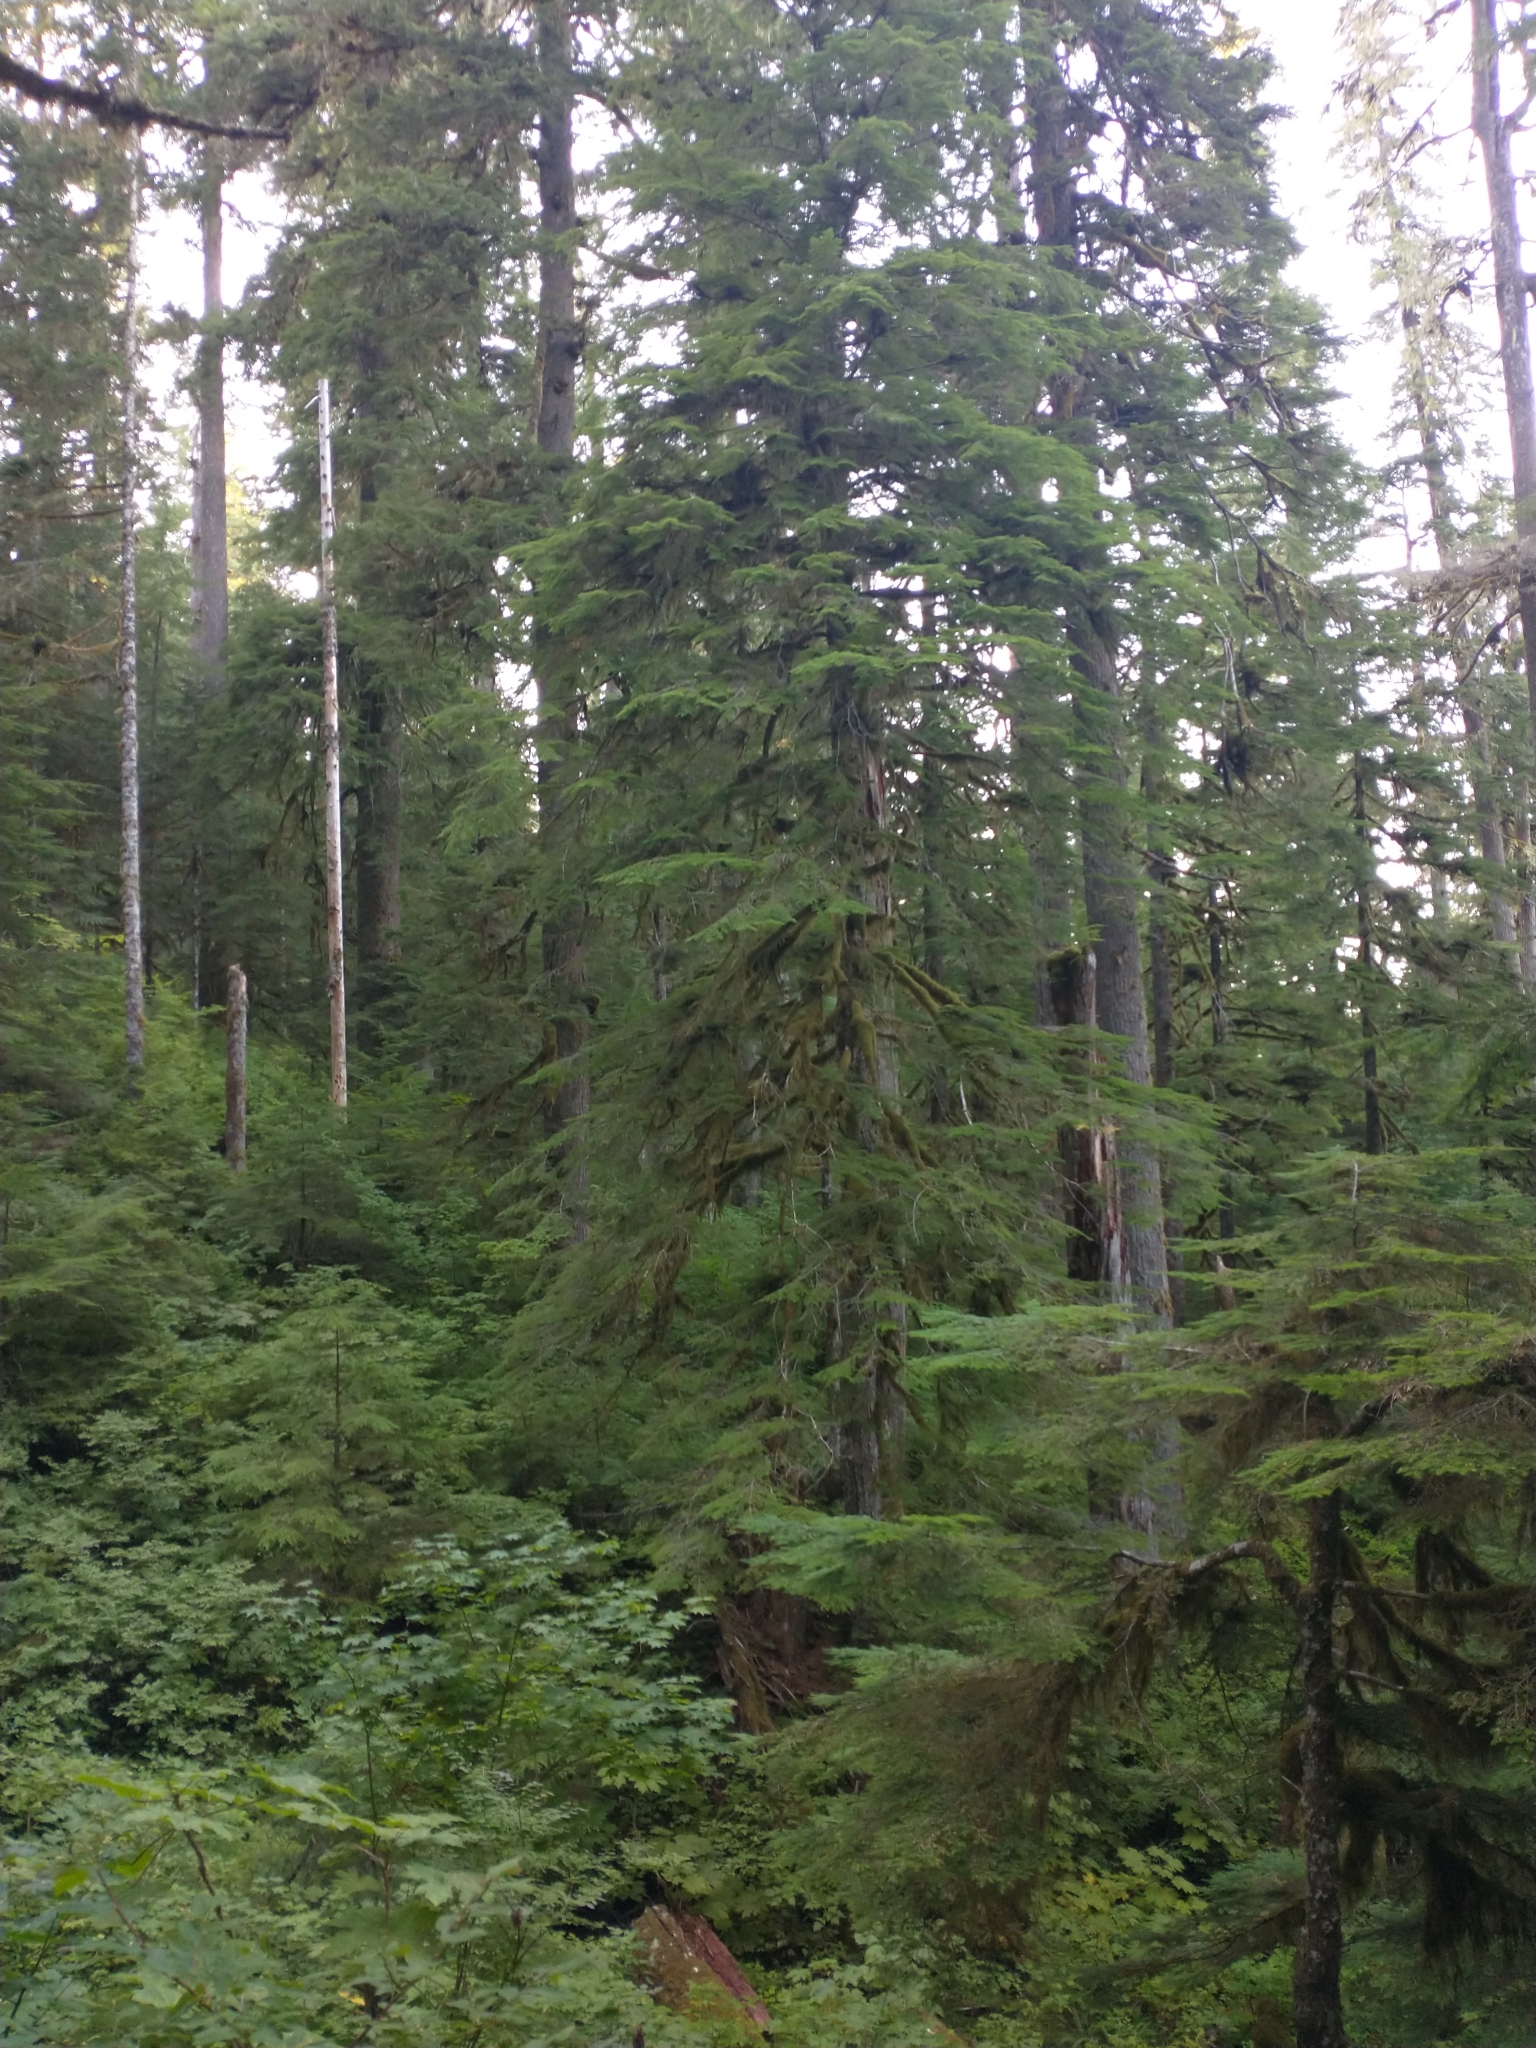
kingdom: Plantae
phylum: Tracheophyta
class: Pinopsida
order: Pinales
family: Pinaceae
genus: Tsuga
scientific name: Tsuga heterophylla
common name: Western hemlock
